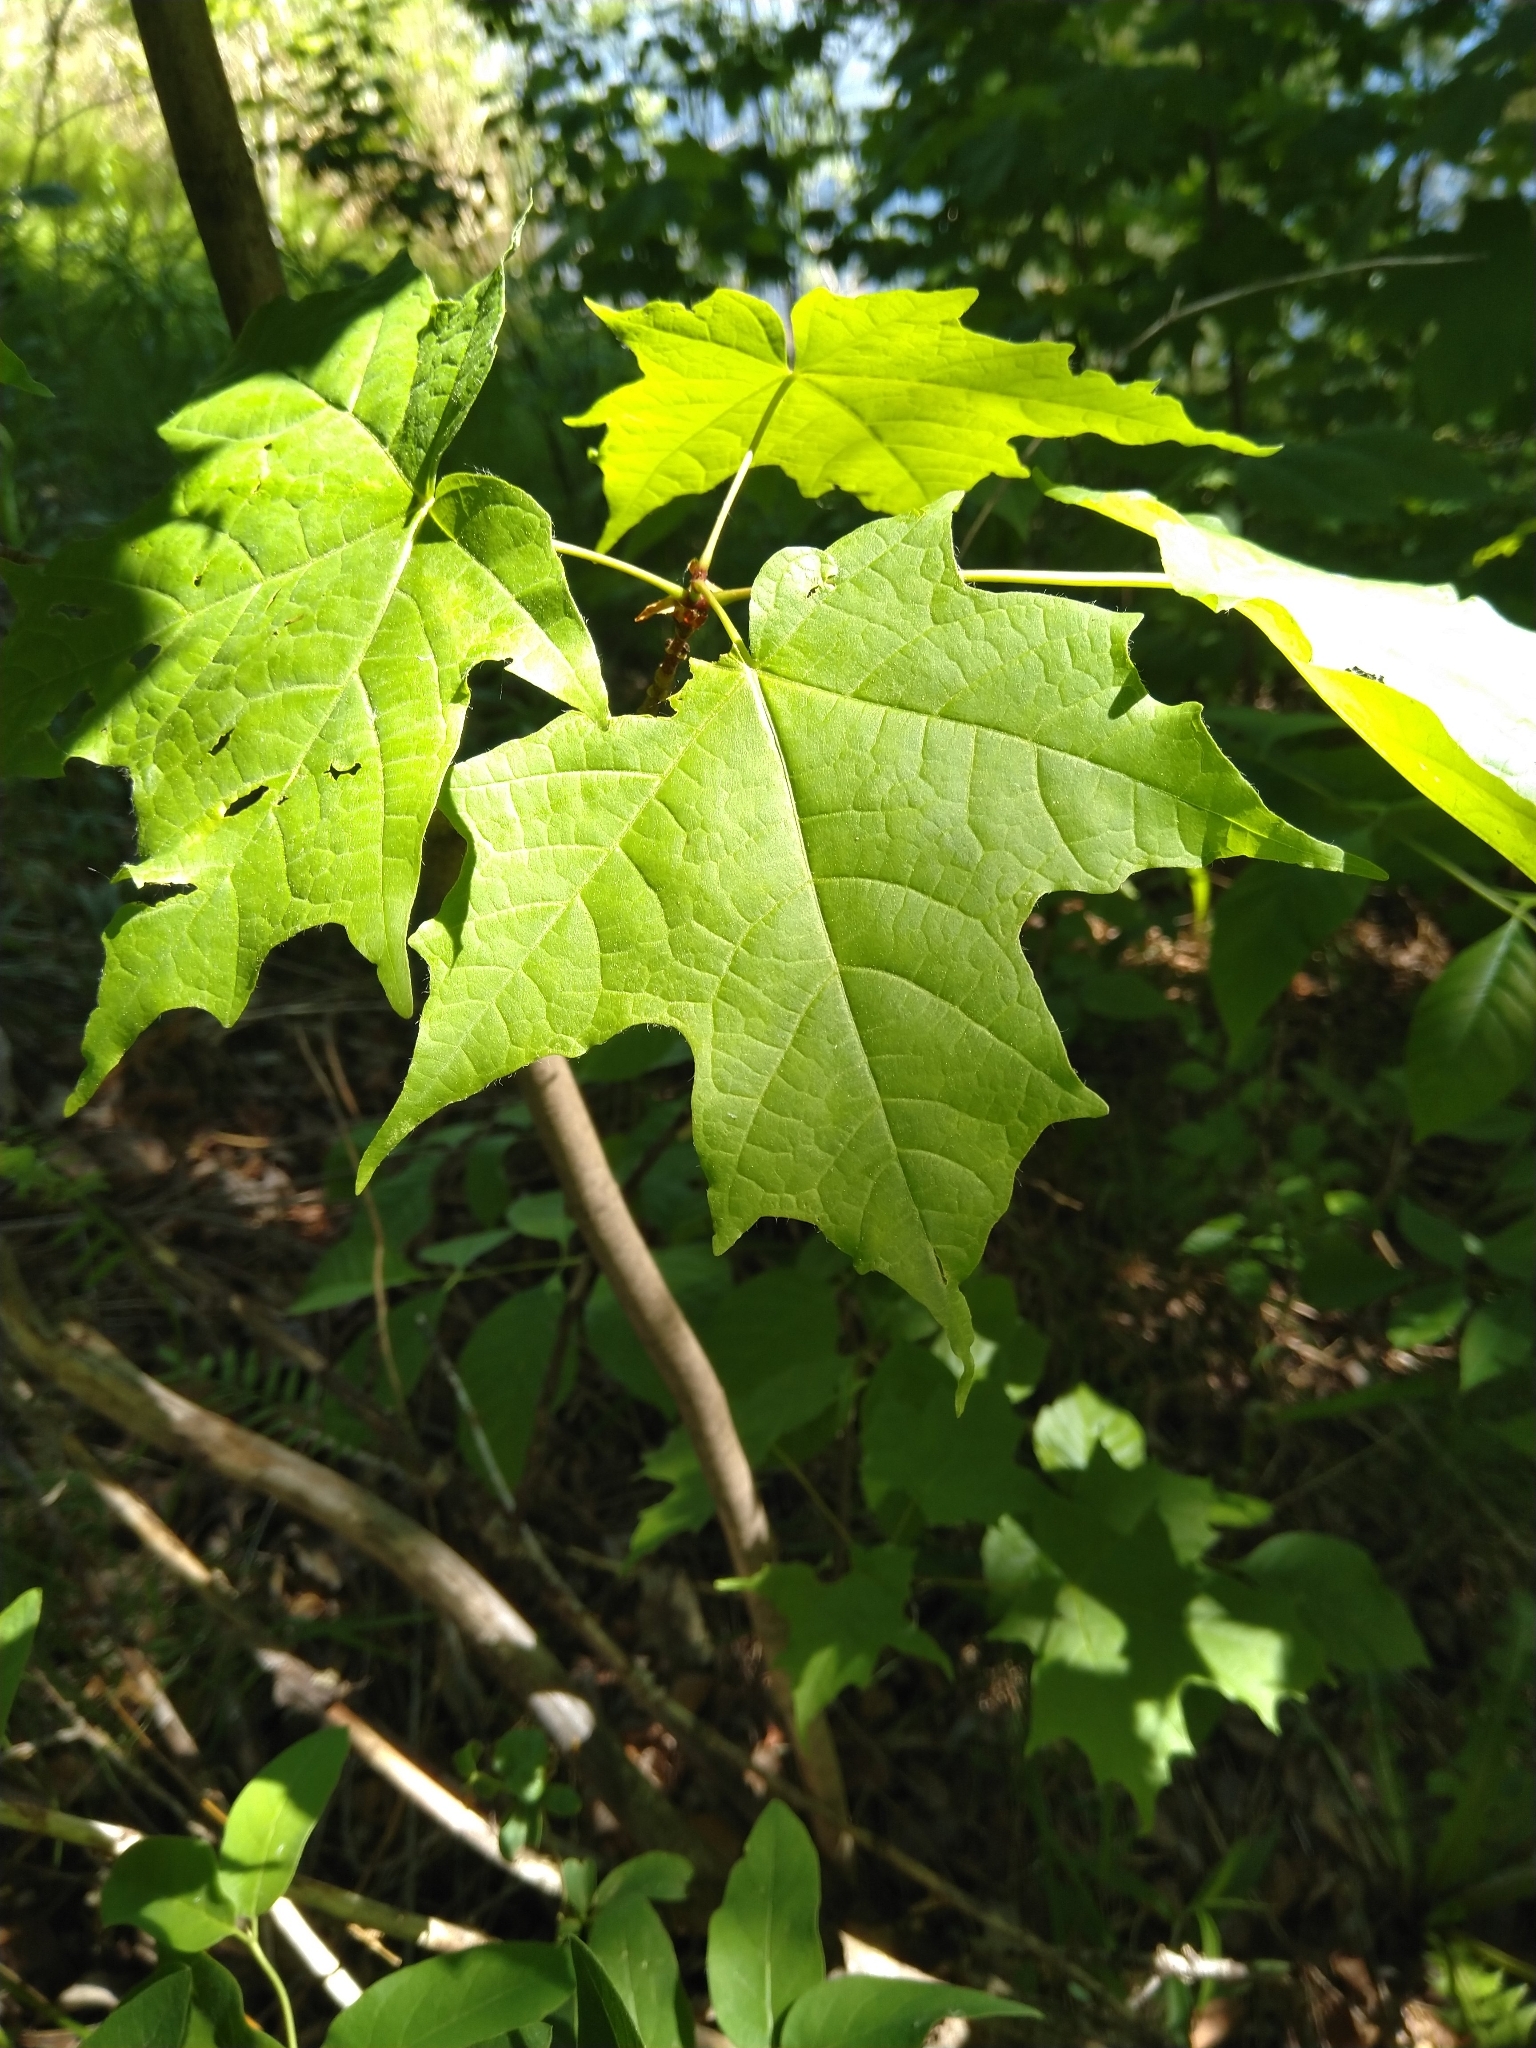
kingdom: Plantae
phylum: Tracheophyta
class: Magnoliopsida
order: Sapindales
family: Sapindaceae
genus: Acer
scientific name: Acer saccharum
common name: Sugar maple
